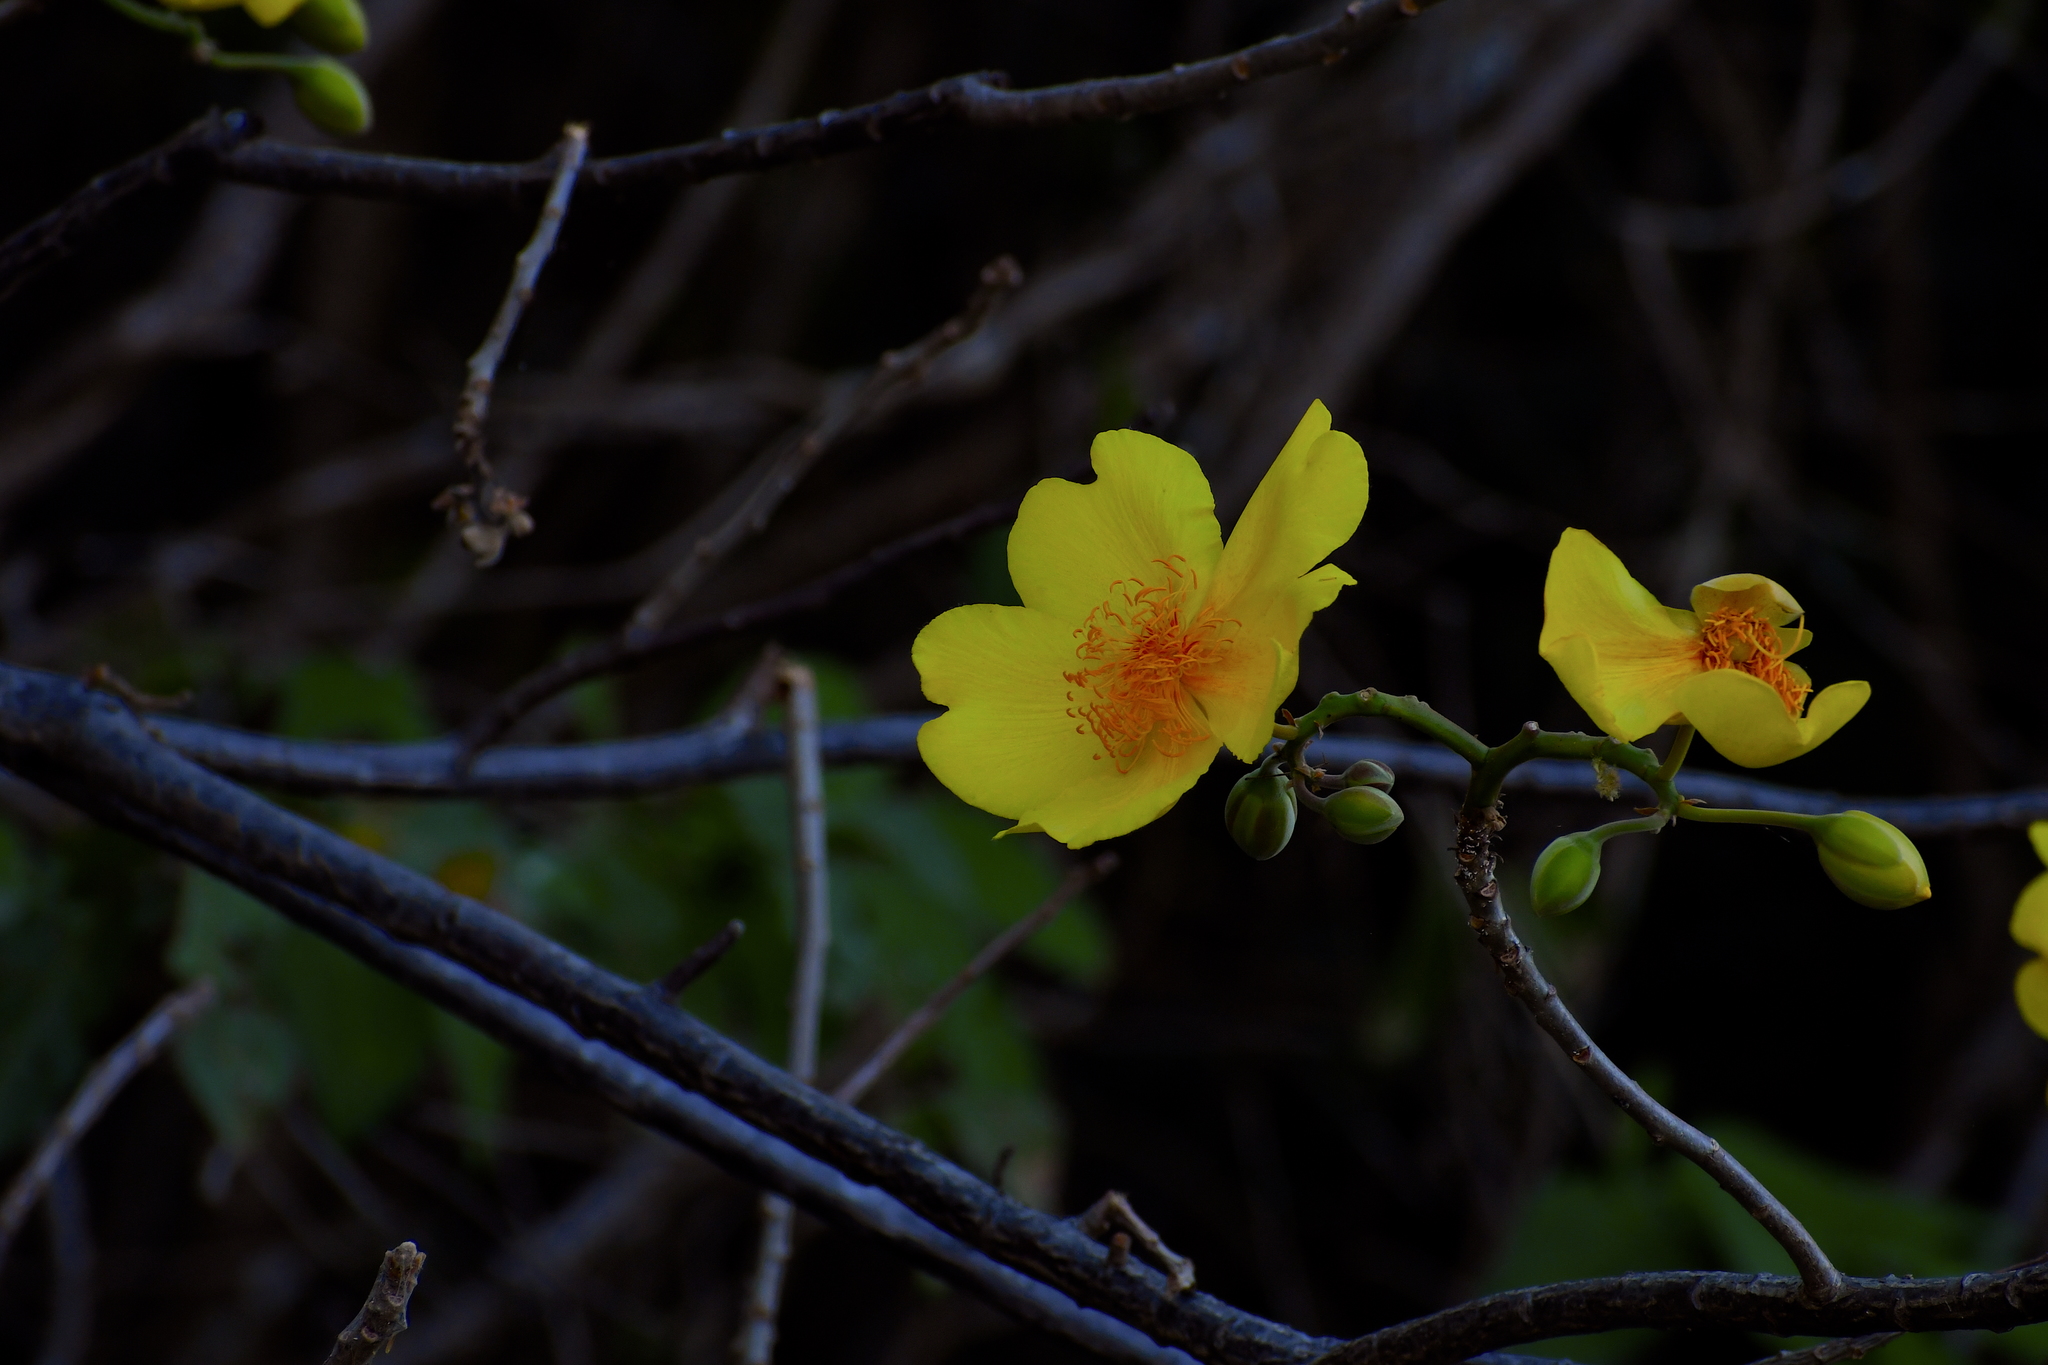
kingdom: Plantae
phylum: Tracheophyta
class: Magnoliopsida
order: Malvales
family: Cochlospermaceae
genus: Cochlospermum
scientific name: Cochlospermum vitifolium
